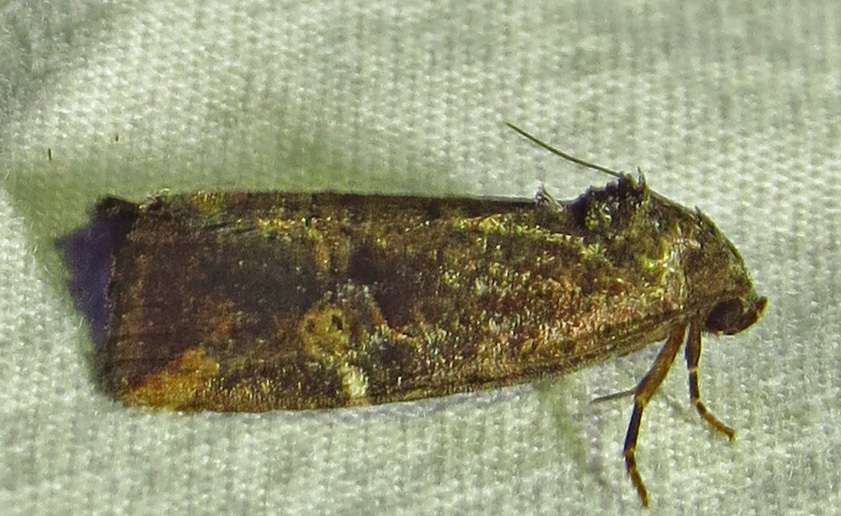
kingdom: Animalia
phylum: Arthropoda
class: Insecta
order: Lepidoptera
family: Noctuidae
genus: Elaphria
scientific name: Elaphria versicolor
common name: Fir harlequin
